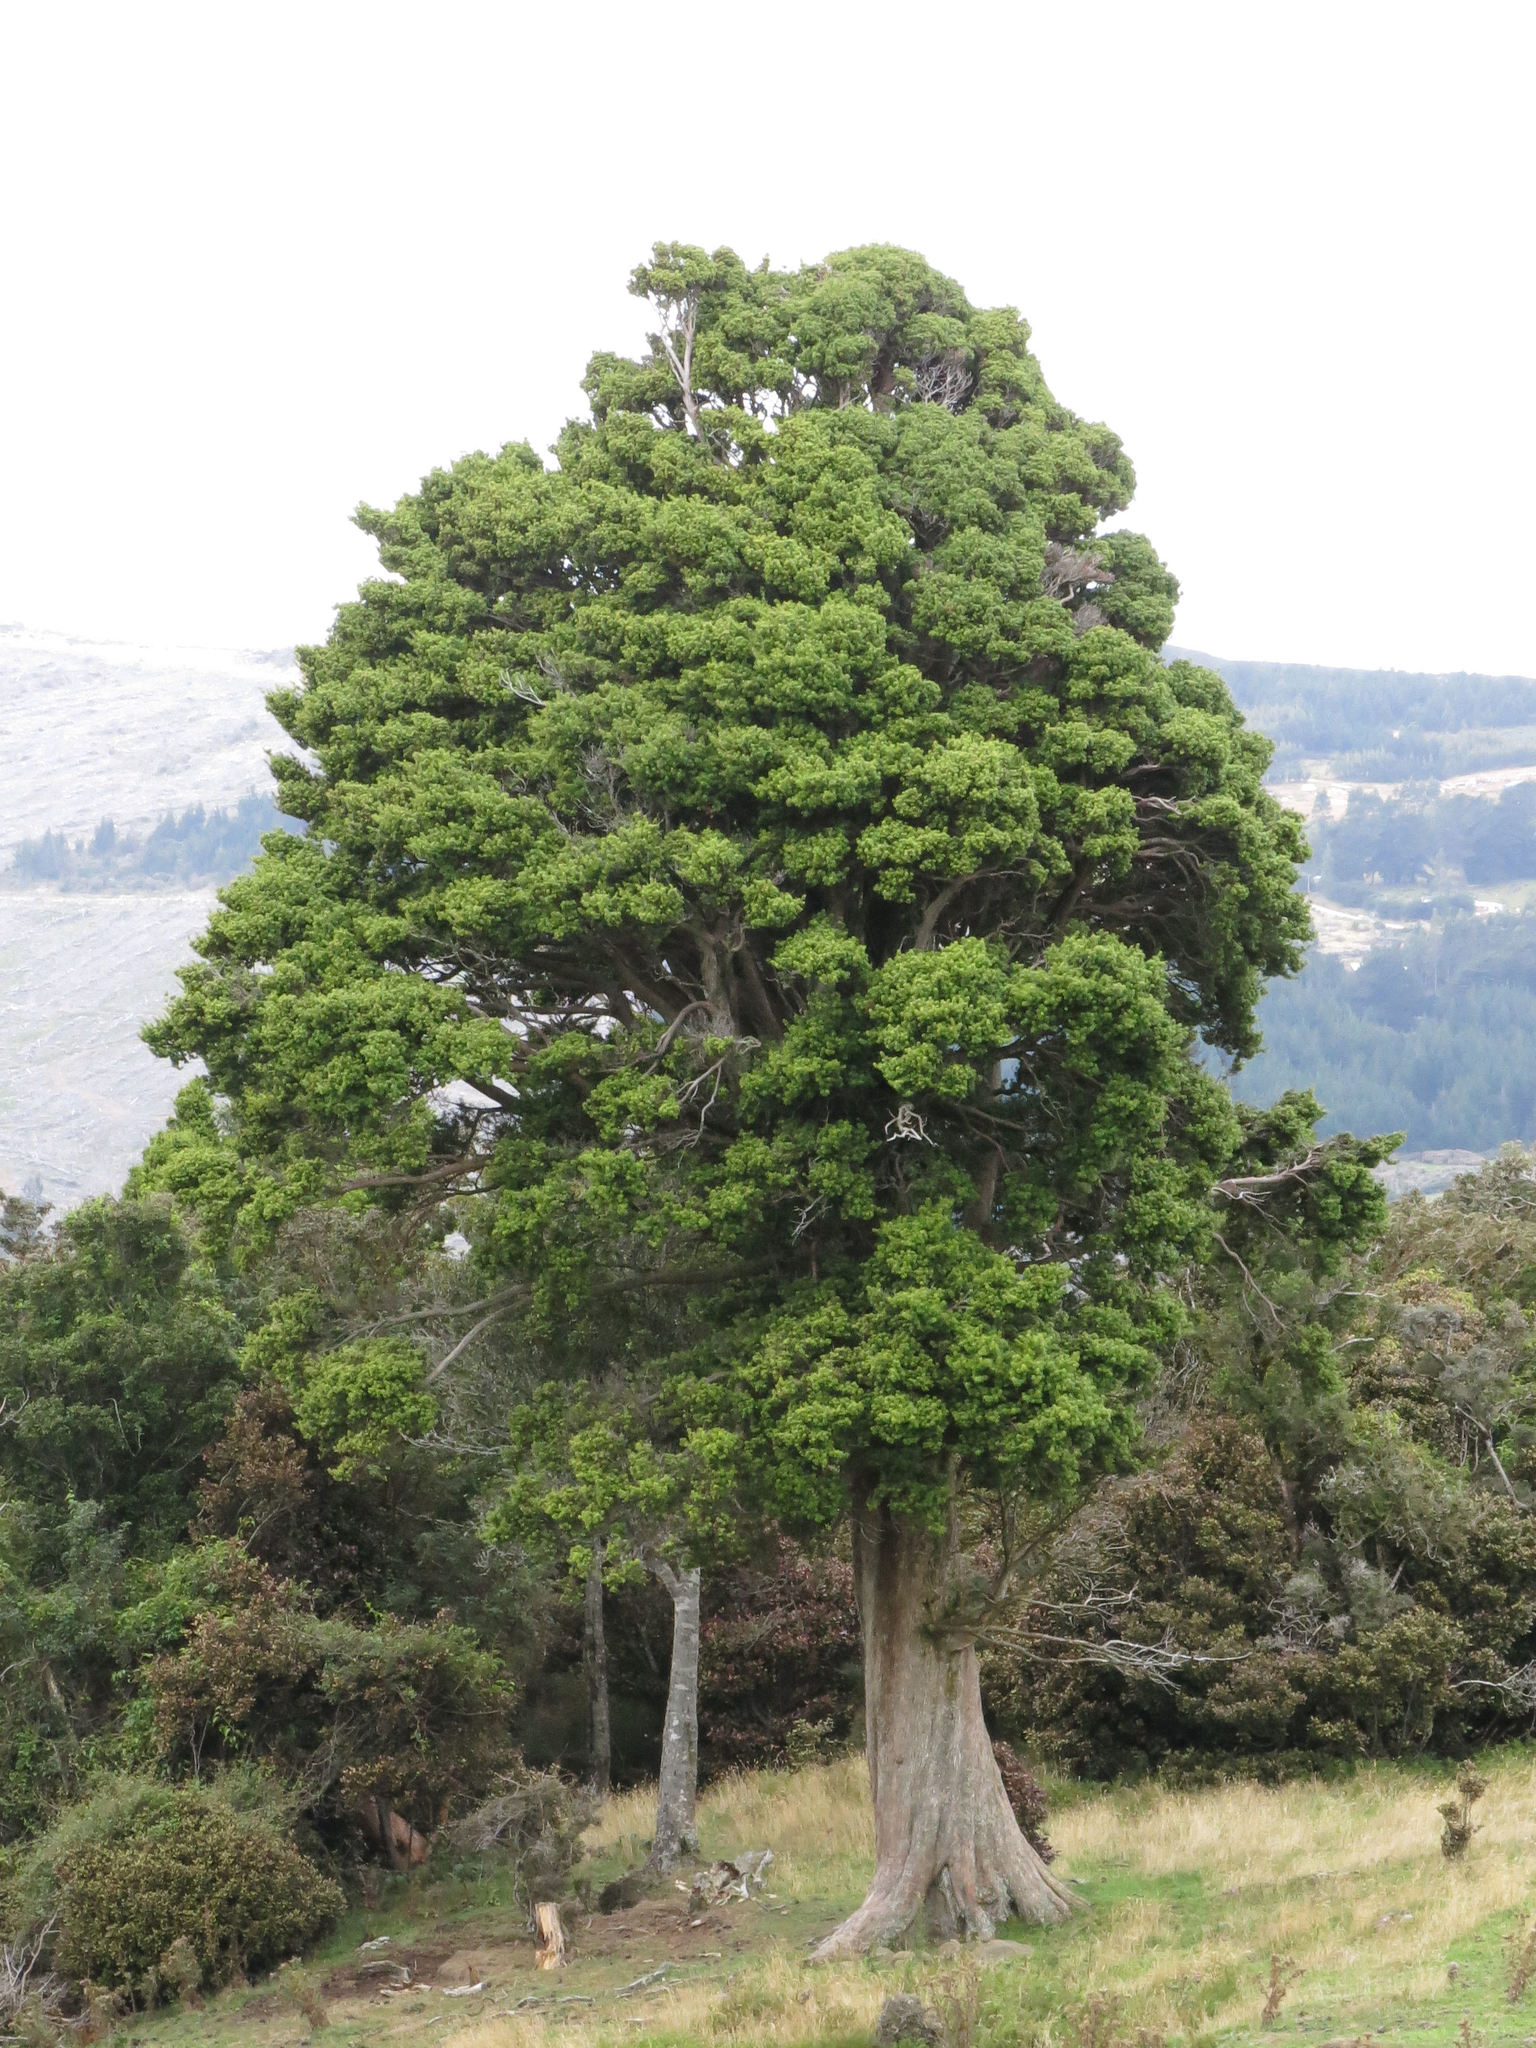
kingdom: Plantae
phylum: Tracheophyta
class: Pinopsida
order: Pinales
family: Podocarpaceae
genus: Podocarpus
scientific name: Podocarpus laetus
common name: Hall's totara
